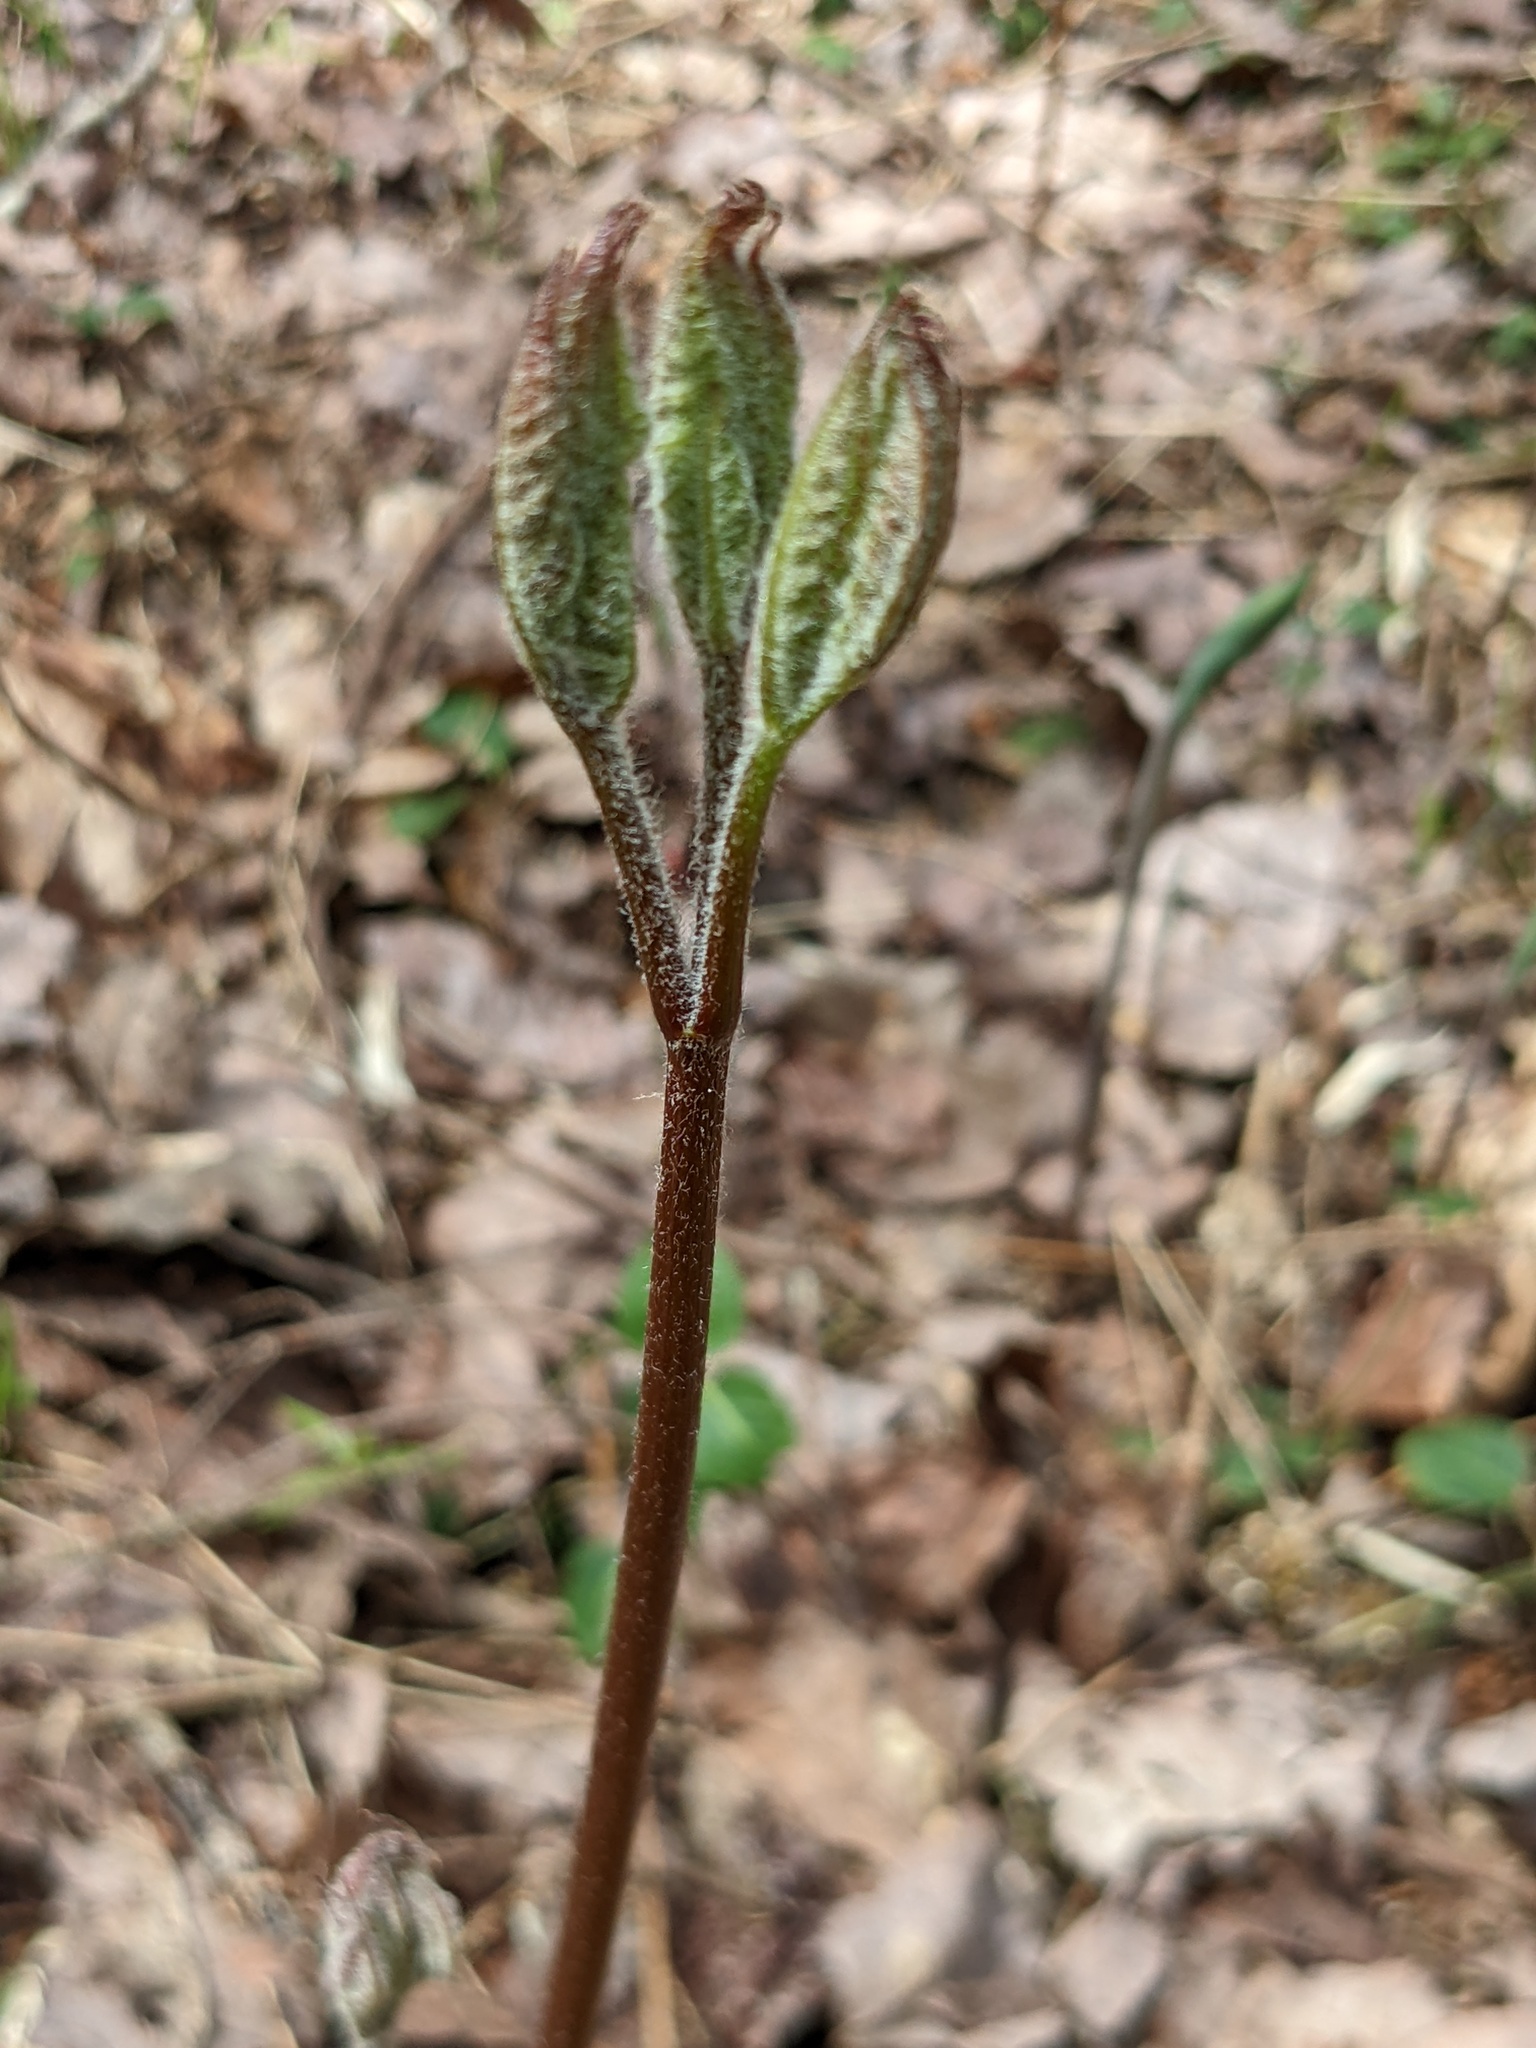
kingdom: Plantae
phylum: Tracheophyta
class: Magnoliopsida
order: Apiales
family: Araliaceae
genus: Aralia
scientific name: Aralia nudicaulis
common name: Wild sarsaparilla
